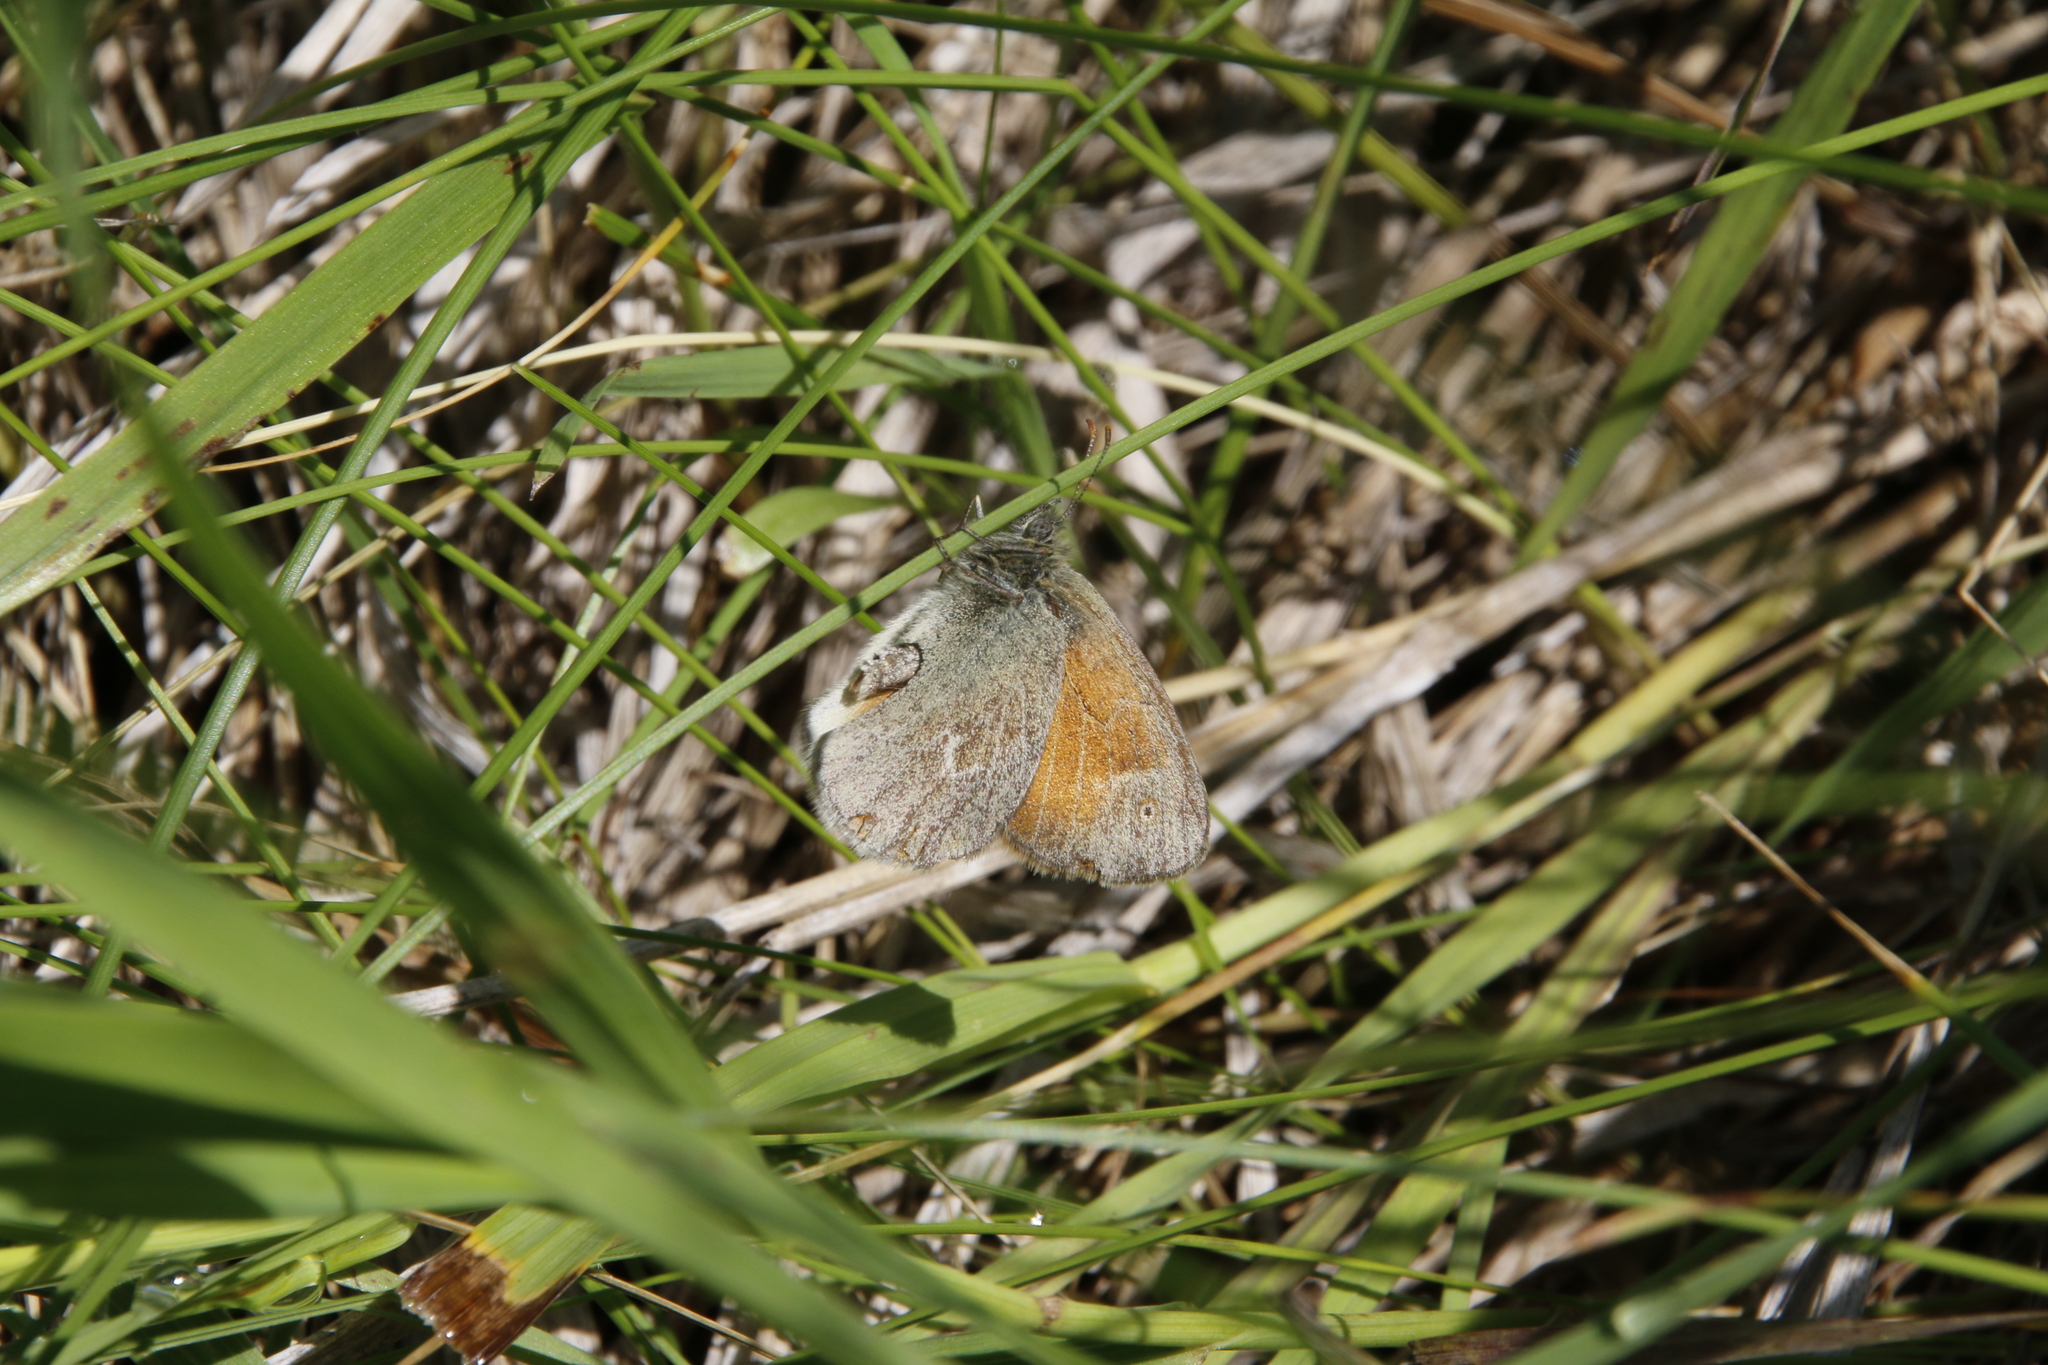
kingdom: Animalia
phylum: Arthropoda
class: Insecta
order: Lepidoptera
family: Nymphalidae
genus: Coenonympha
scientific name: Coenonympha california
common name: Common ringlet
